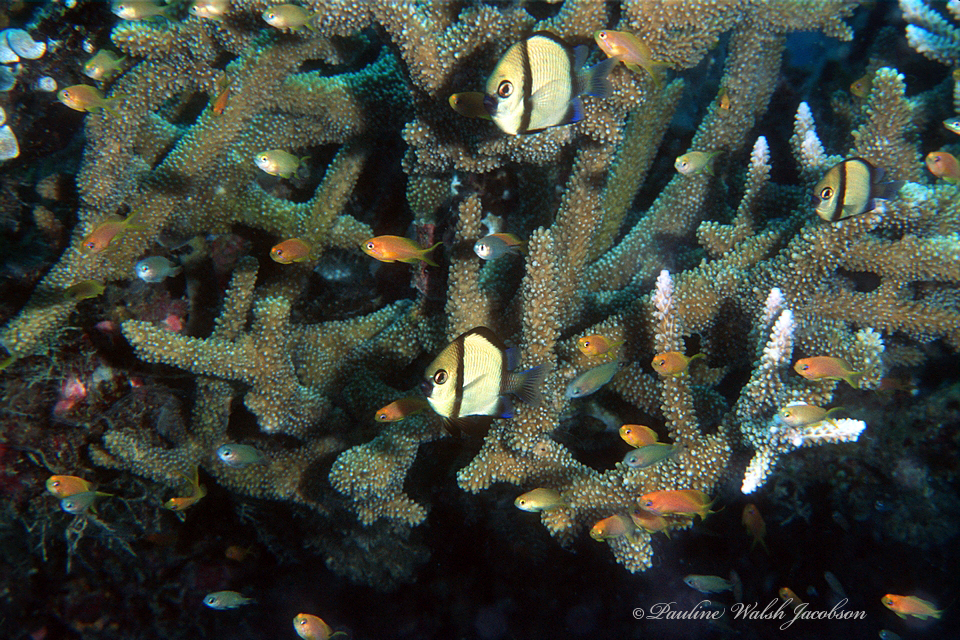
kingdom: Animalia
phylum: Chordata
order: Perciformes
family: Pomacentridae
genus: Dascyllus
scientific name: Dascyllus reticulatus
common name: Reticulated dascyllus
